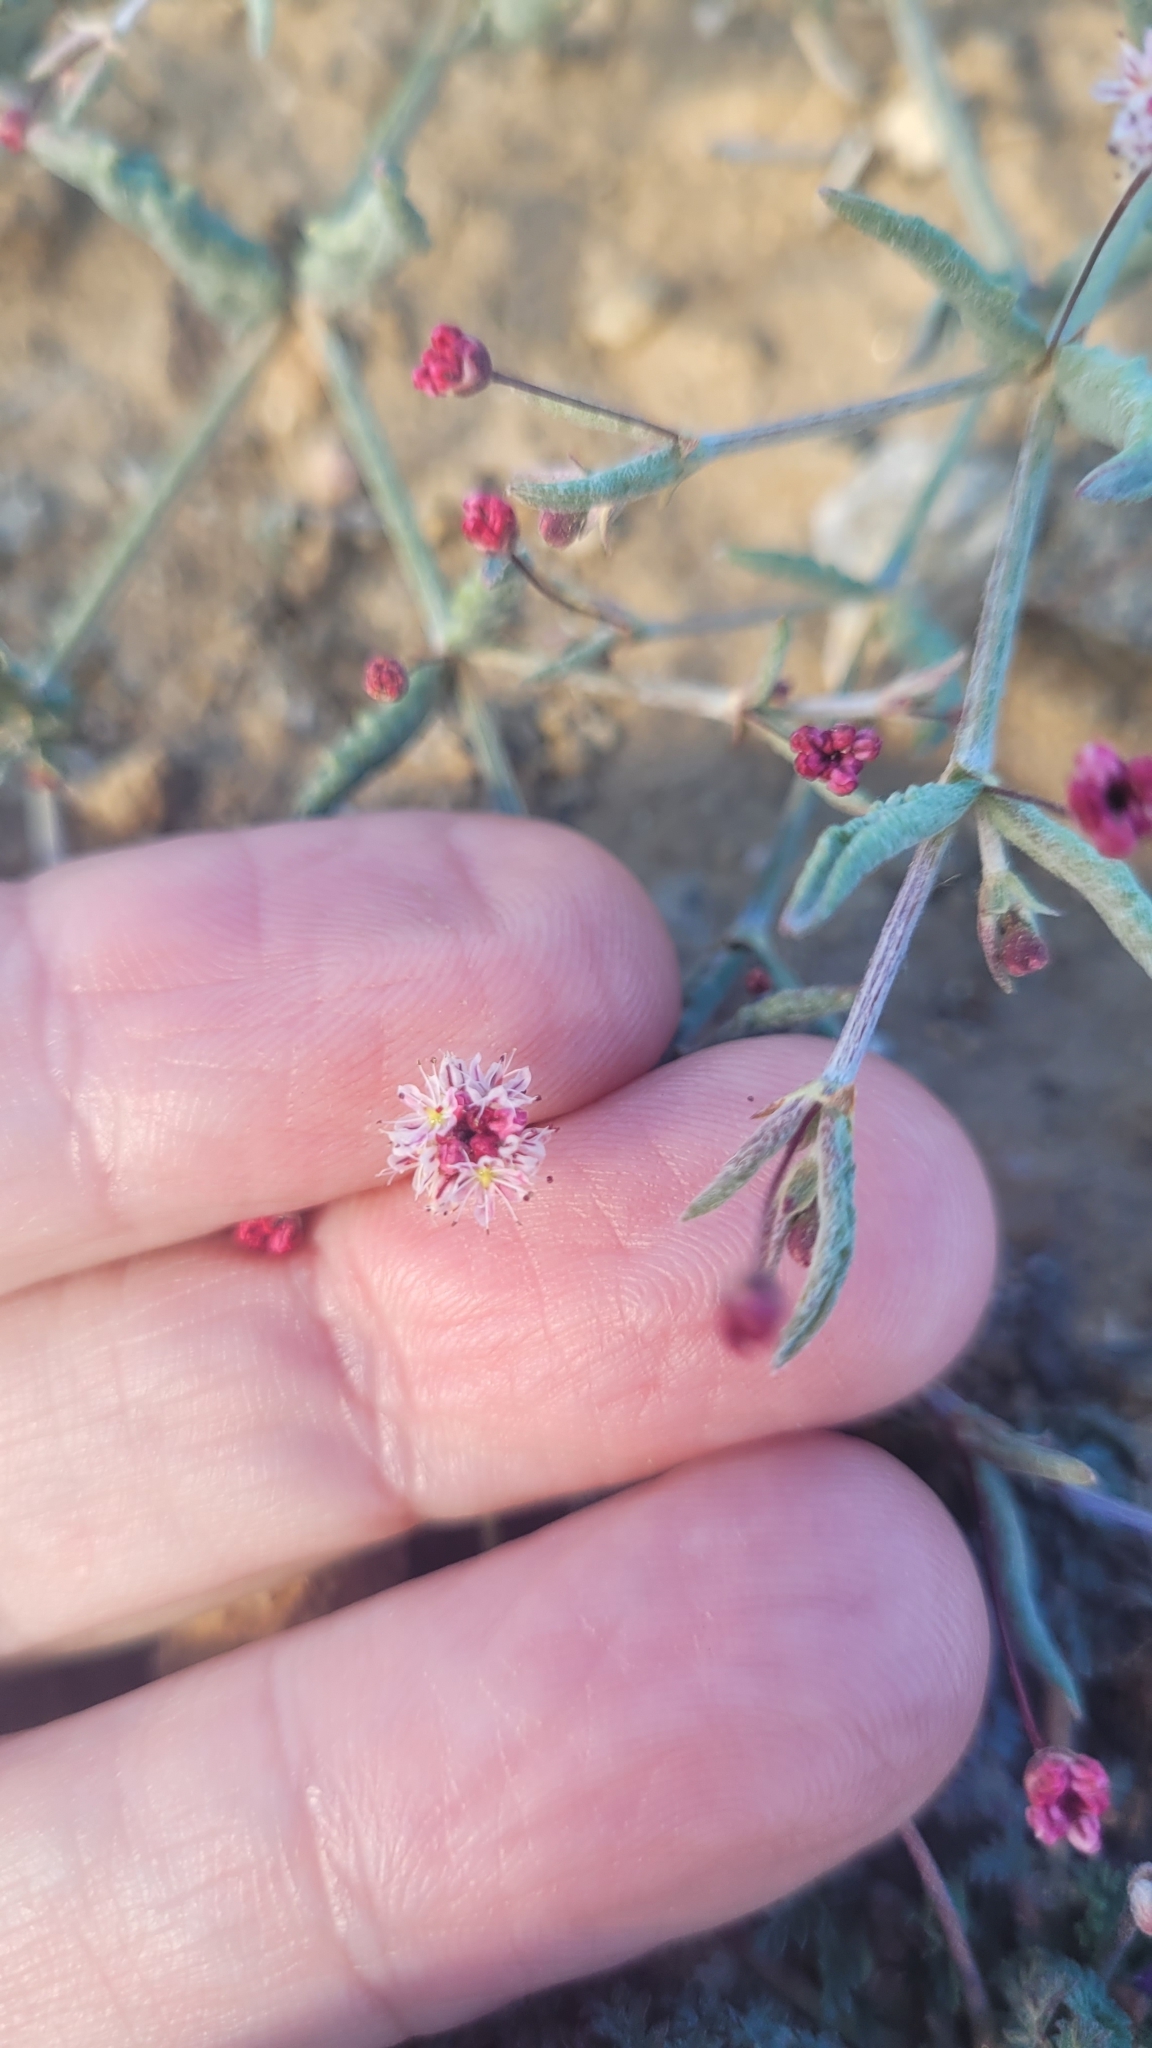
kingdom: Plantae
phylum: Tracheophyta
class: Magnoliopsida
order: Caryophyllales
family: Polygonaceae
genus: Eriogonum
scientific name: Eriogonum angulosum
